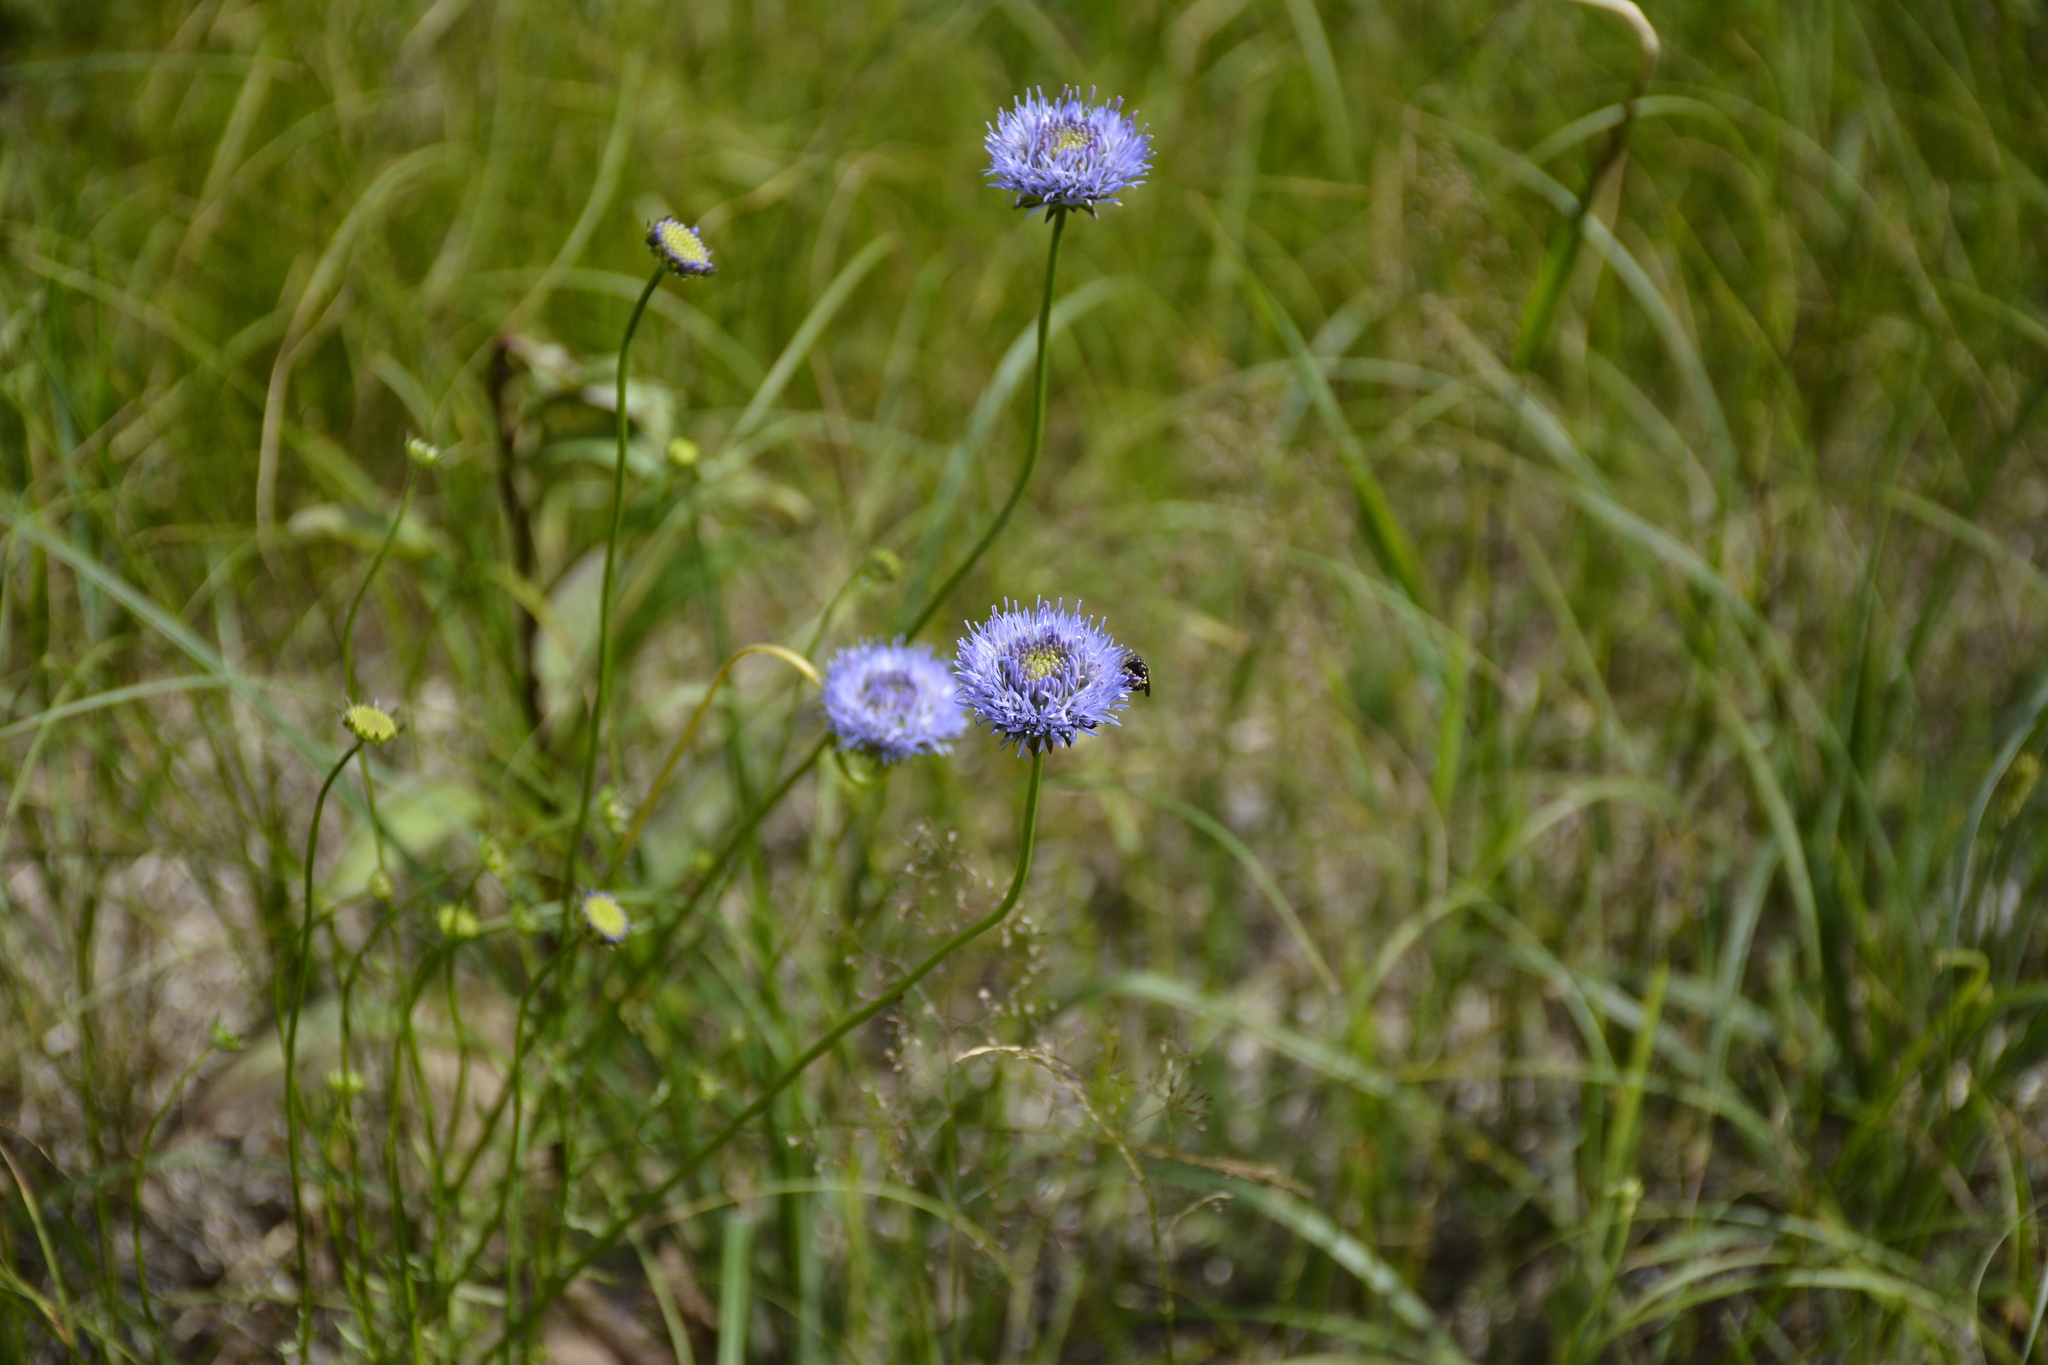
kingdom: Plantae
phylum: Tracheophyta
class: Magnoliopsida
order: Asterales
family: Campanulaceae
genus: Jasione
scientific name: Jasione montana
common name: Sheep's-bit
